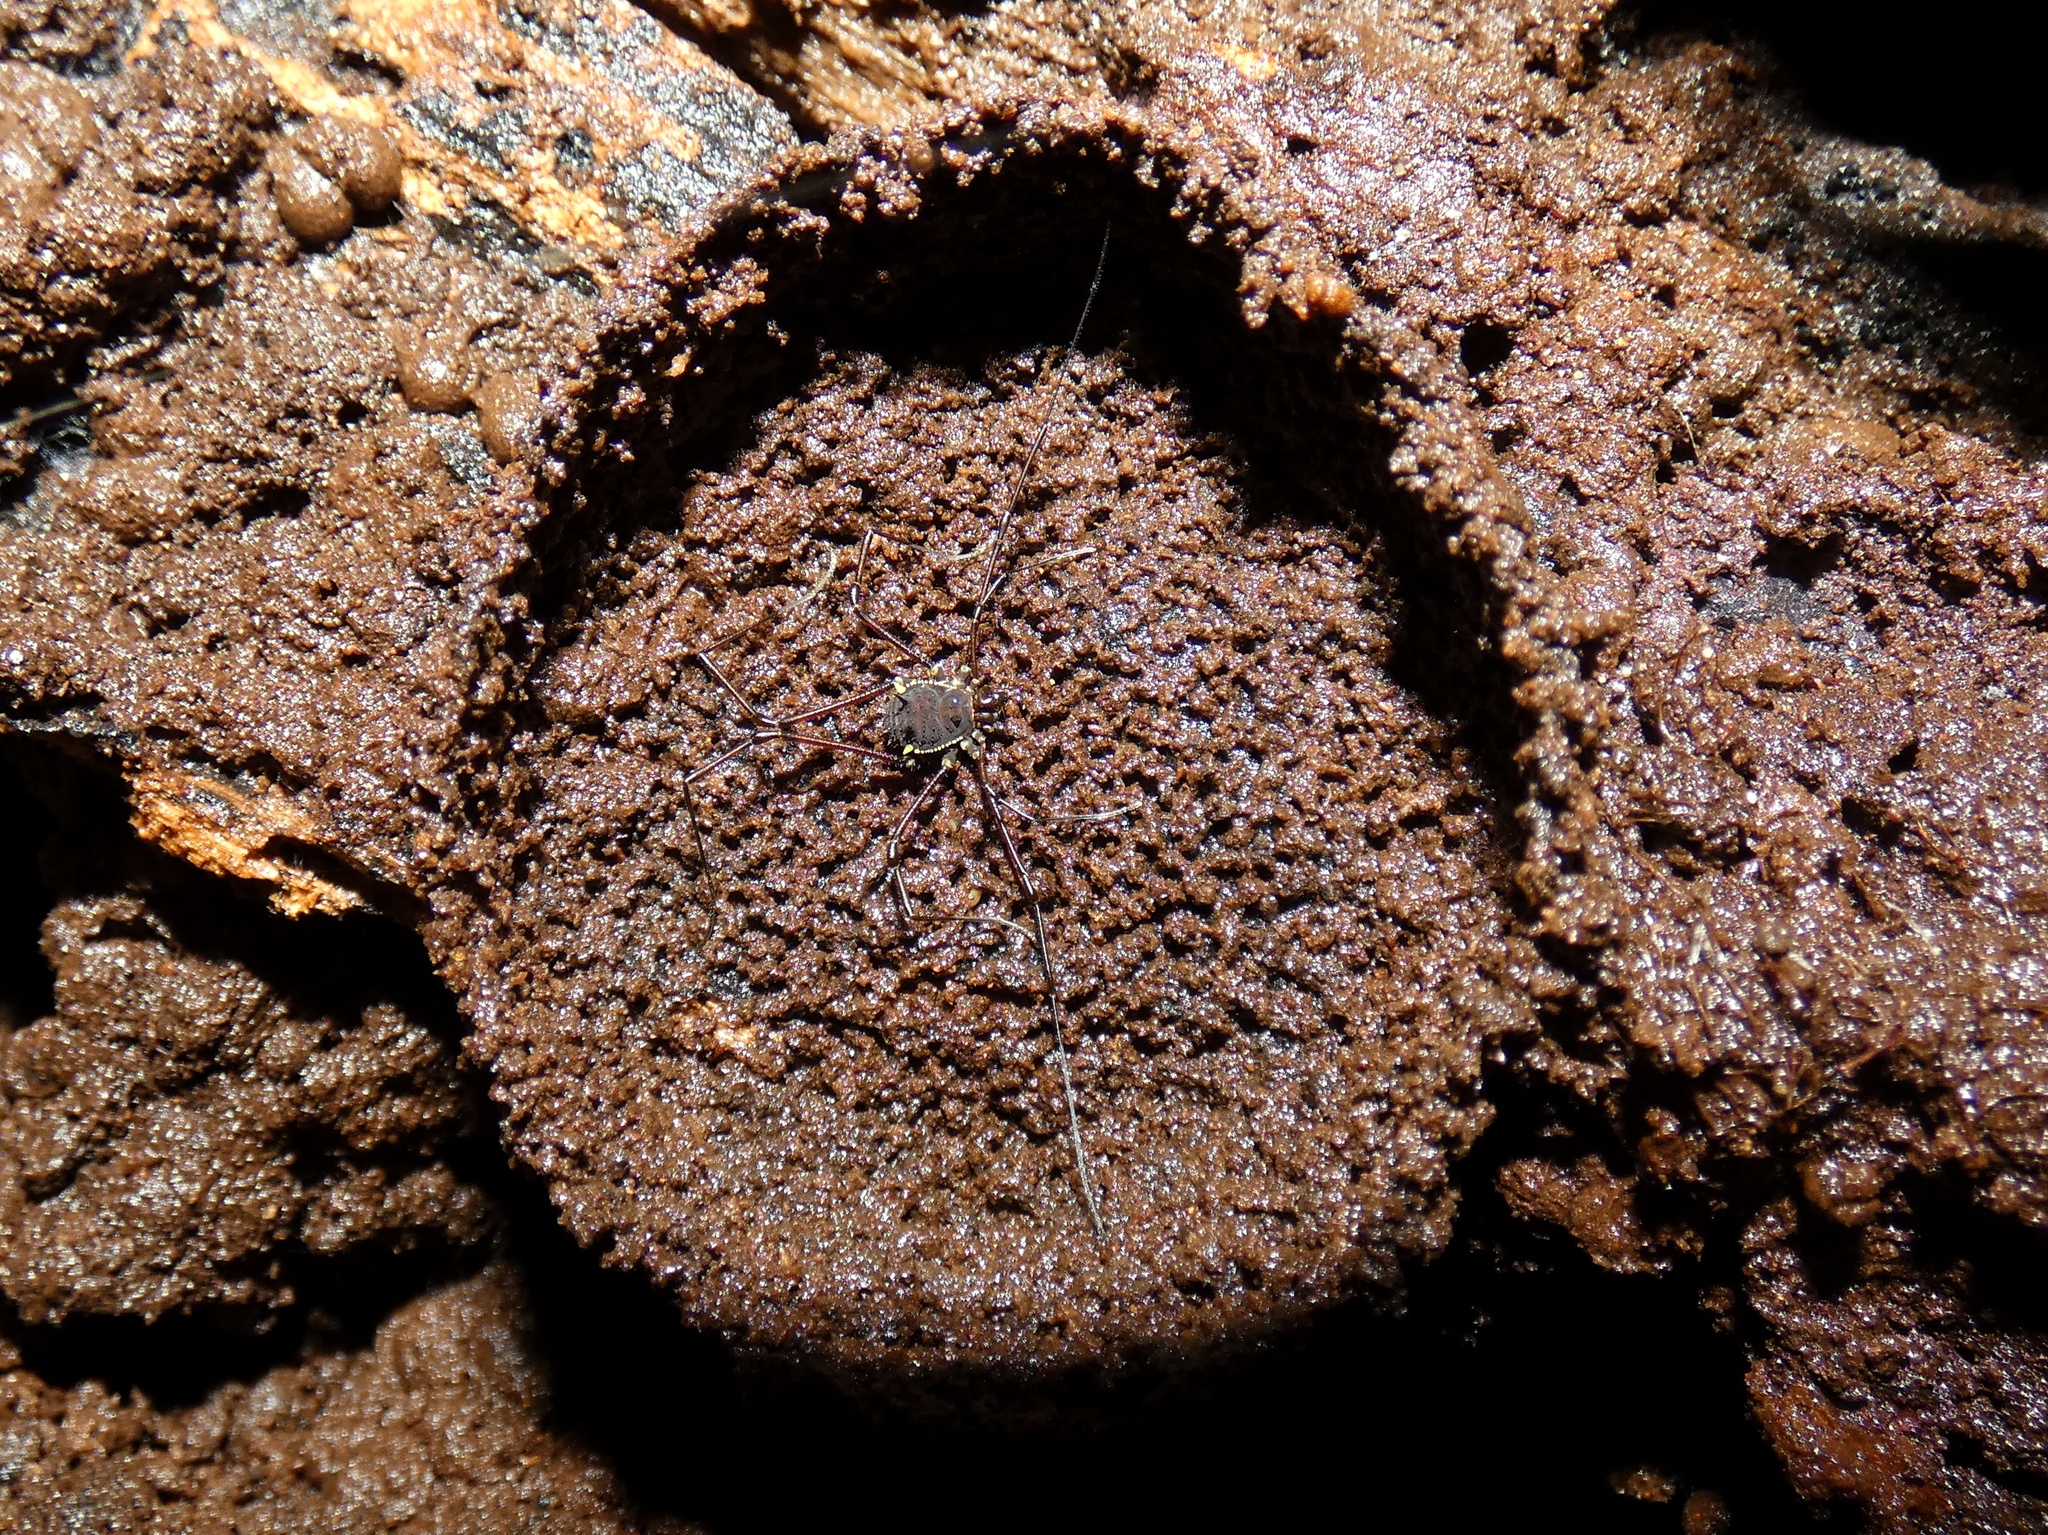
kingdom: Animalia
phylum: Arthropoda
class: Arachnida
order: Opiliones
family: Nomoclastidae
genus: Quindina
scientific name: Quindina albomarginis
